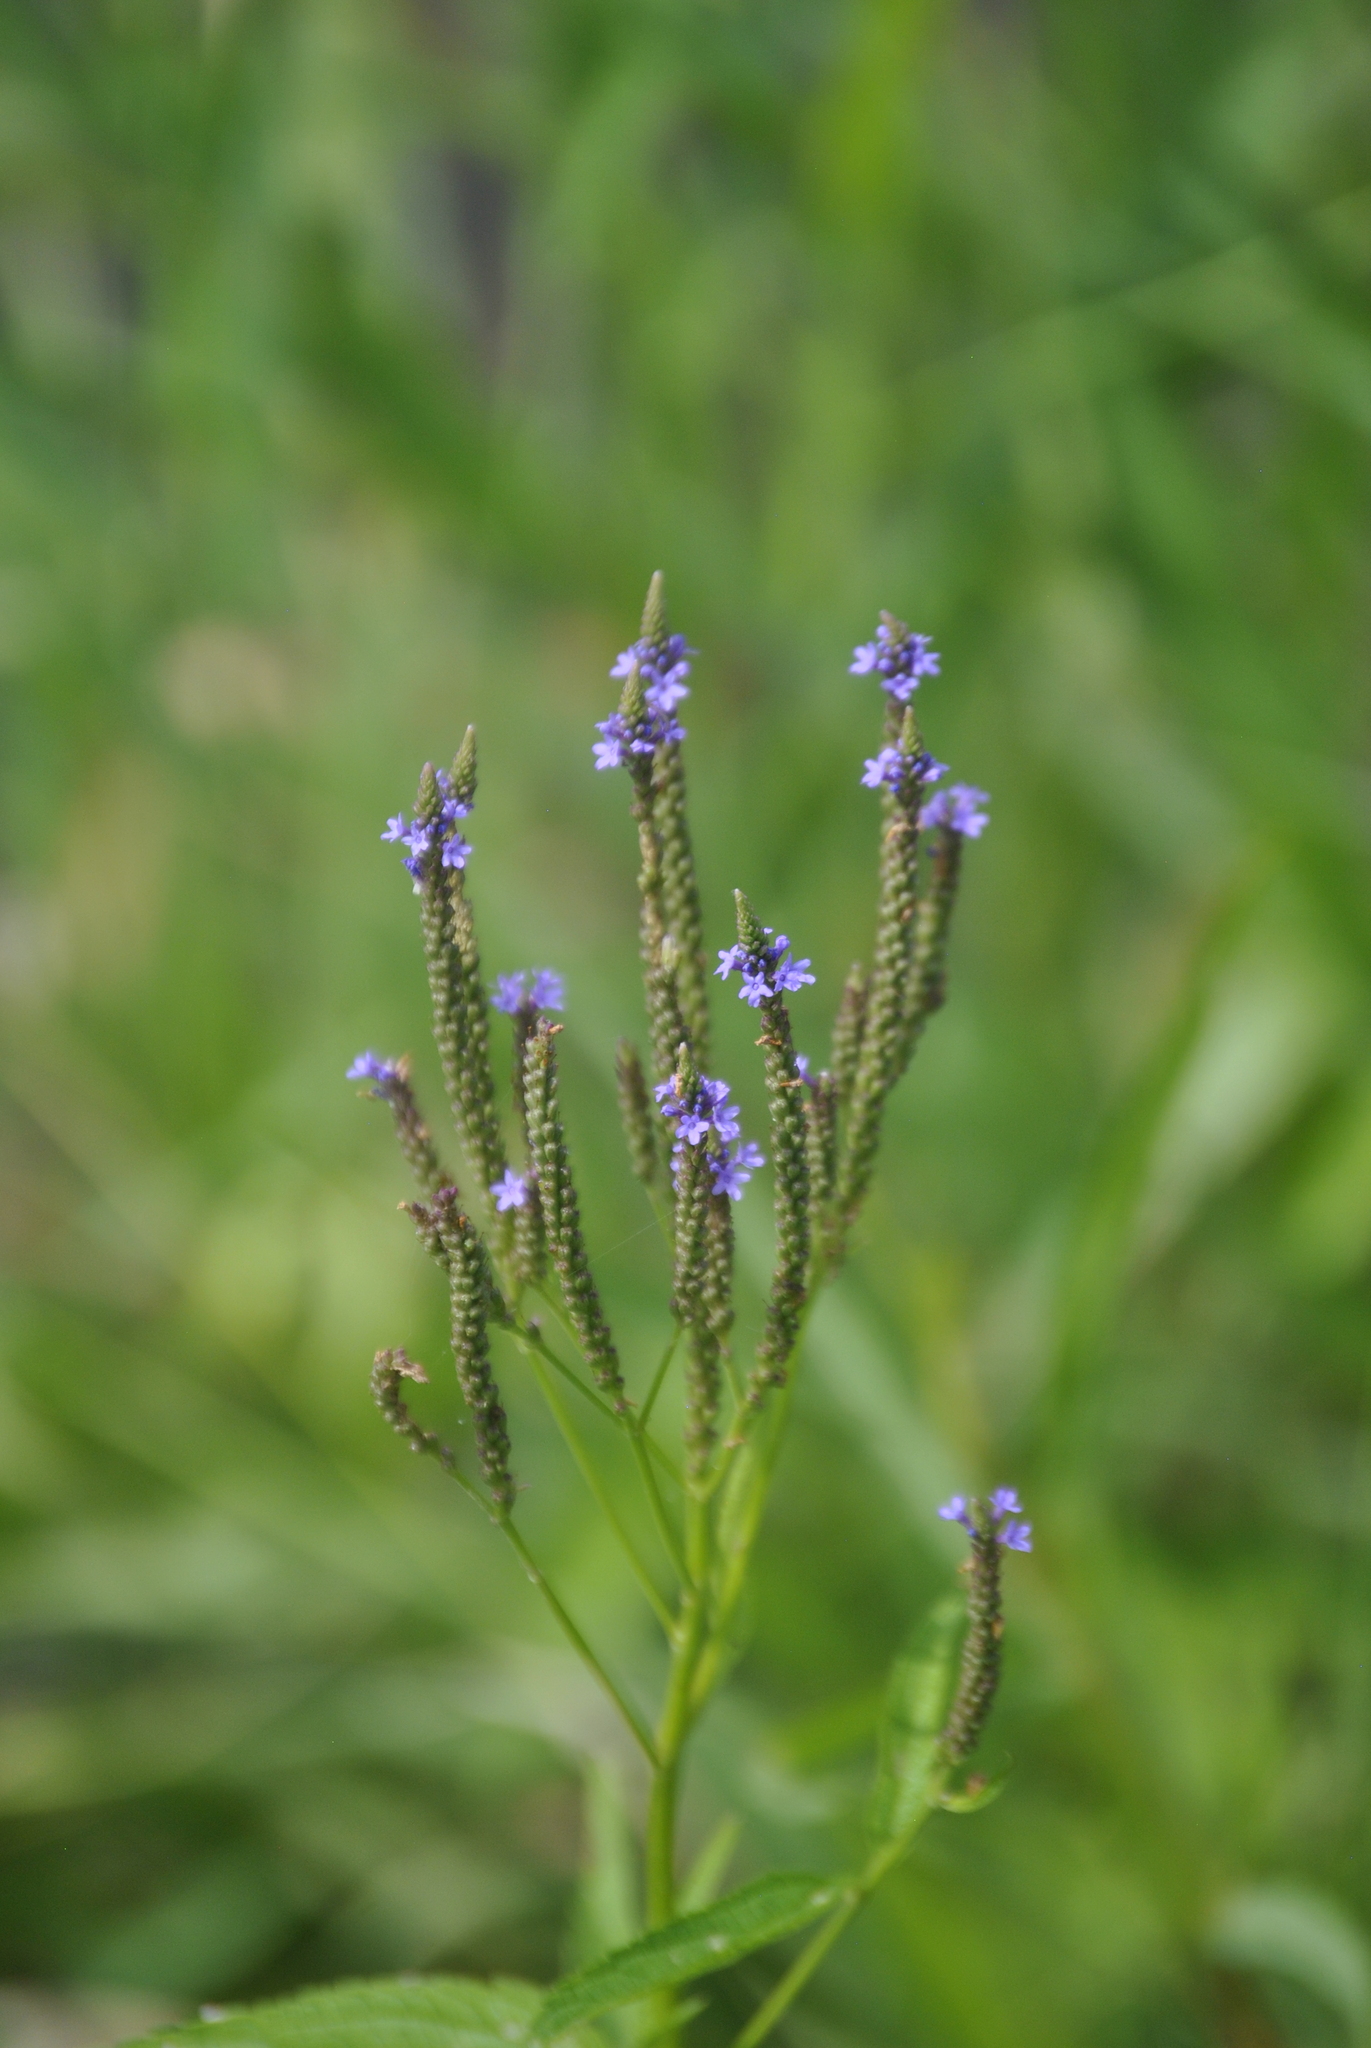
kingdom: Plantae
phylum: Tracheophyta
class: Magnoliopsida
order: Lamiales
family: Verbenaceae
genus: Verbena
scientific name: Verbena hastata
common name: American blue vervain
